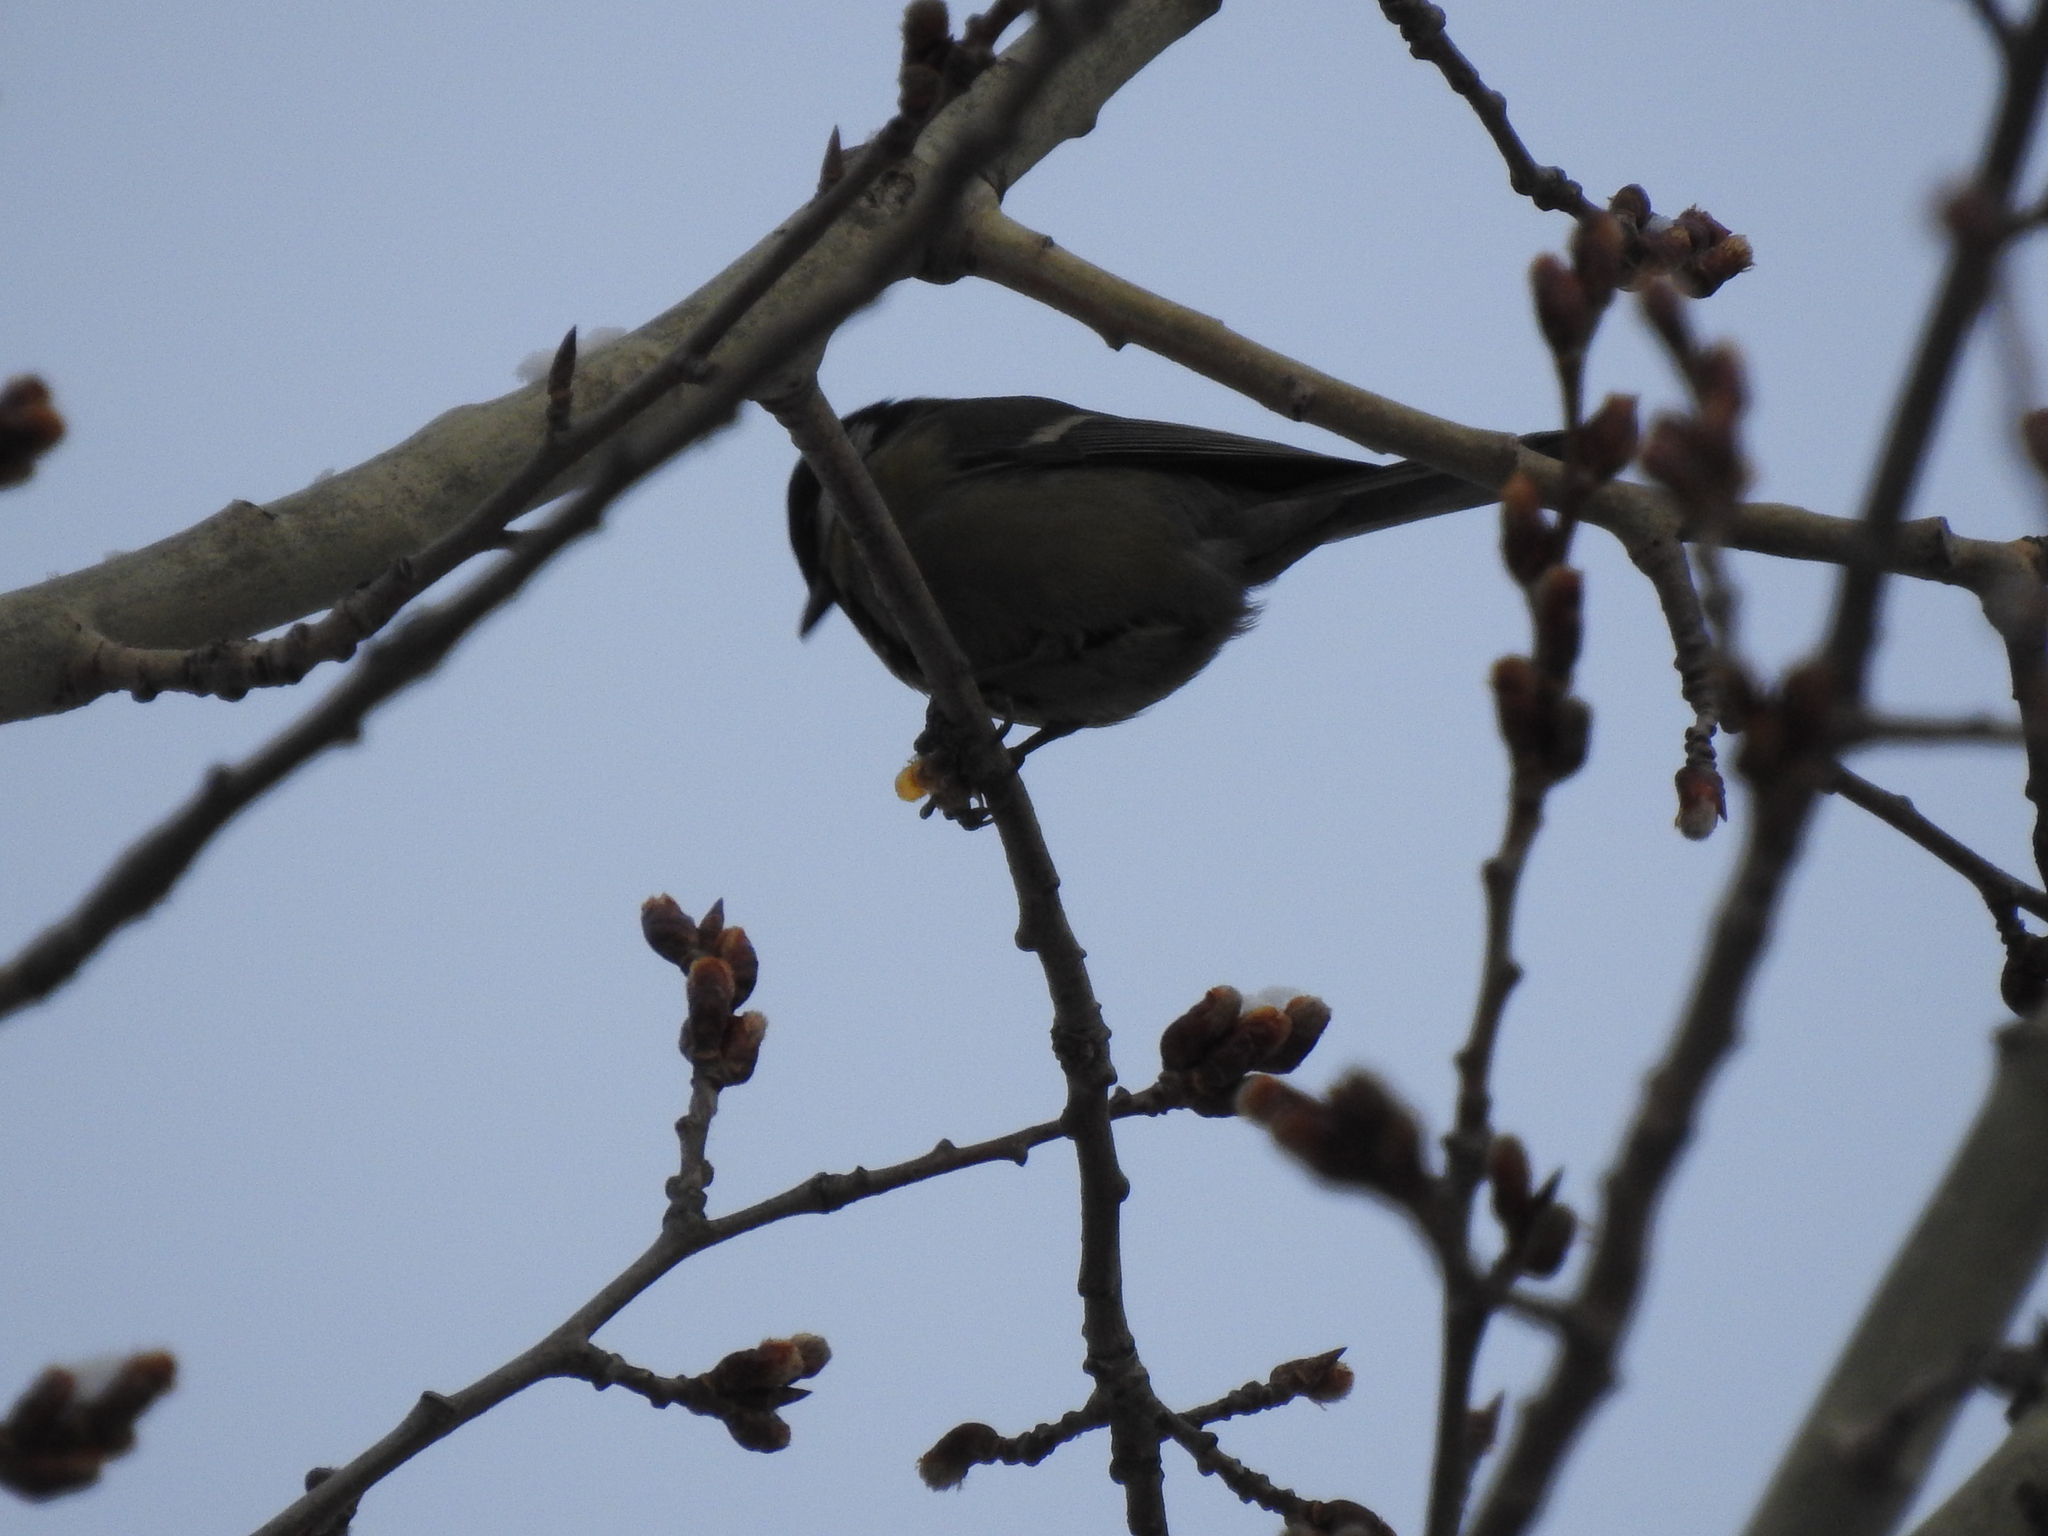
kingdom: Animalia
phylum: Chordata
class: Aves
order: Passeriformes
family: Paridae
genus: Parus
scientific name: Parus major
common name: Great tit
